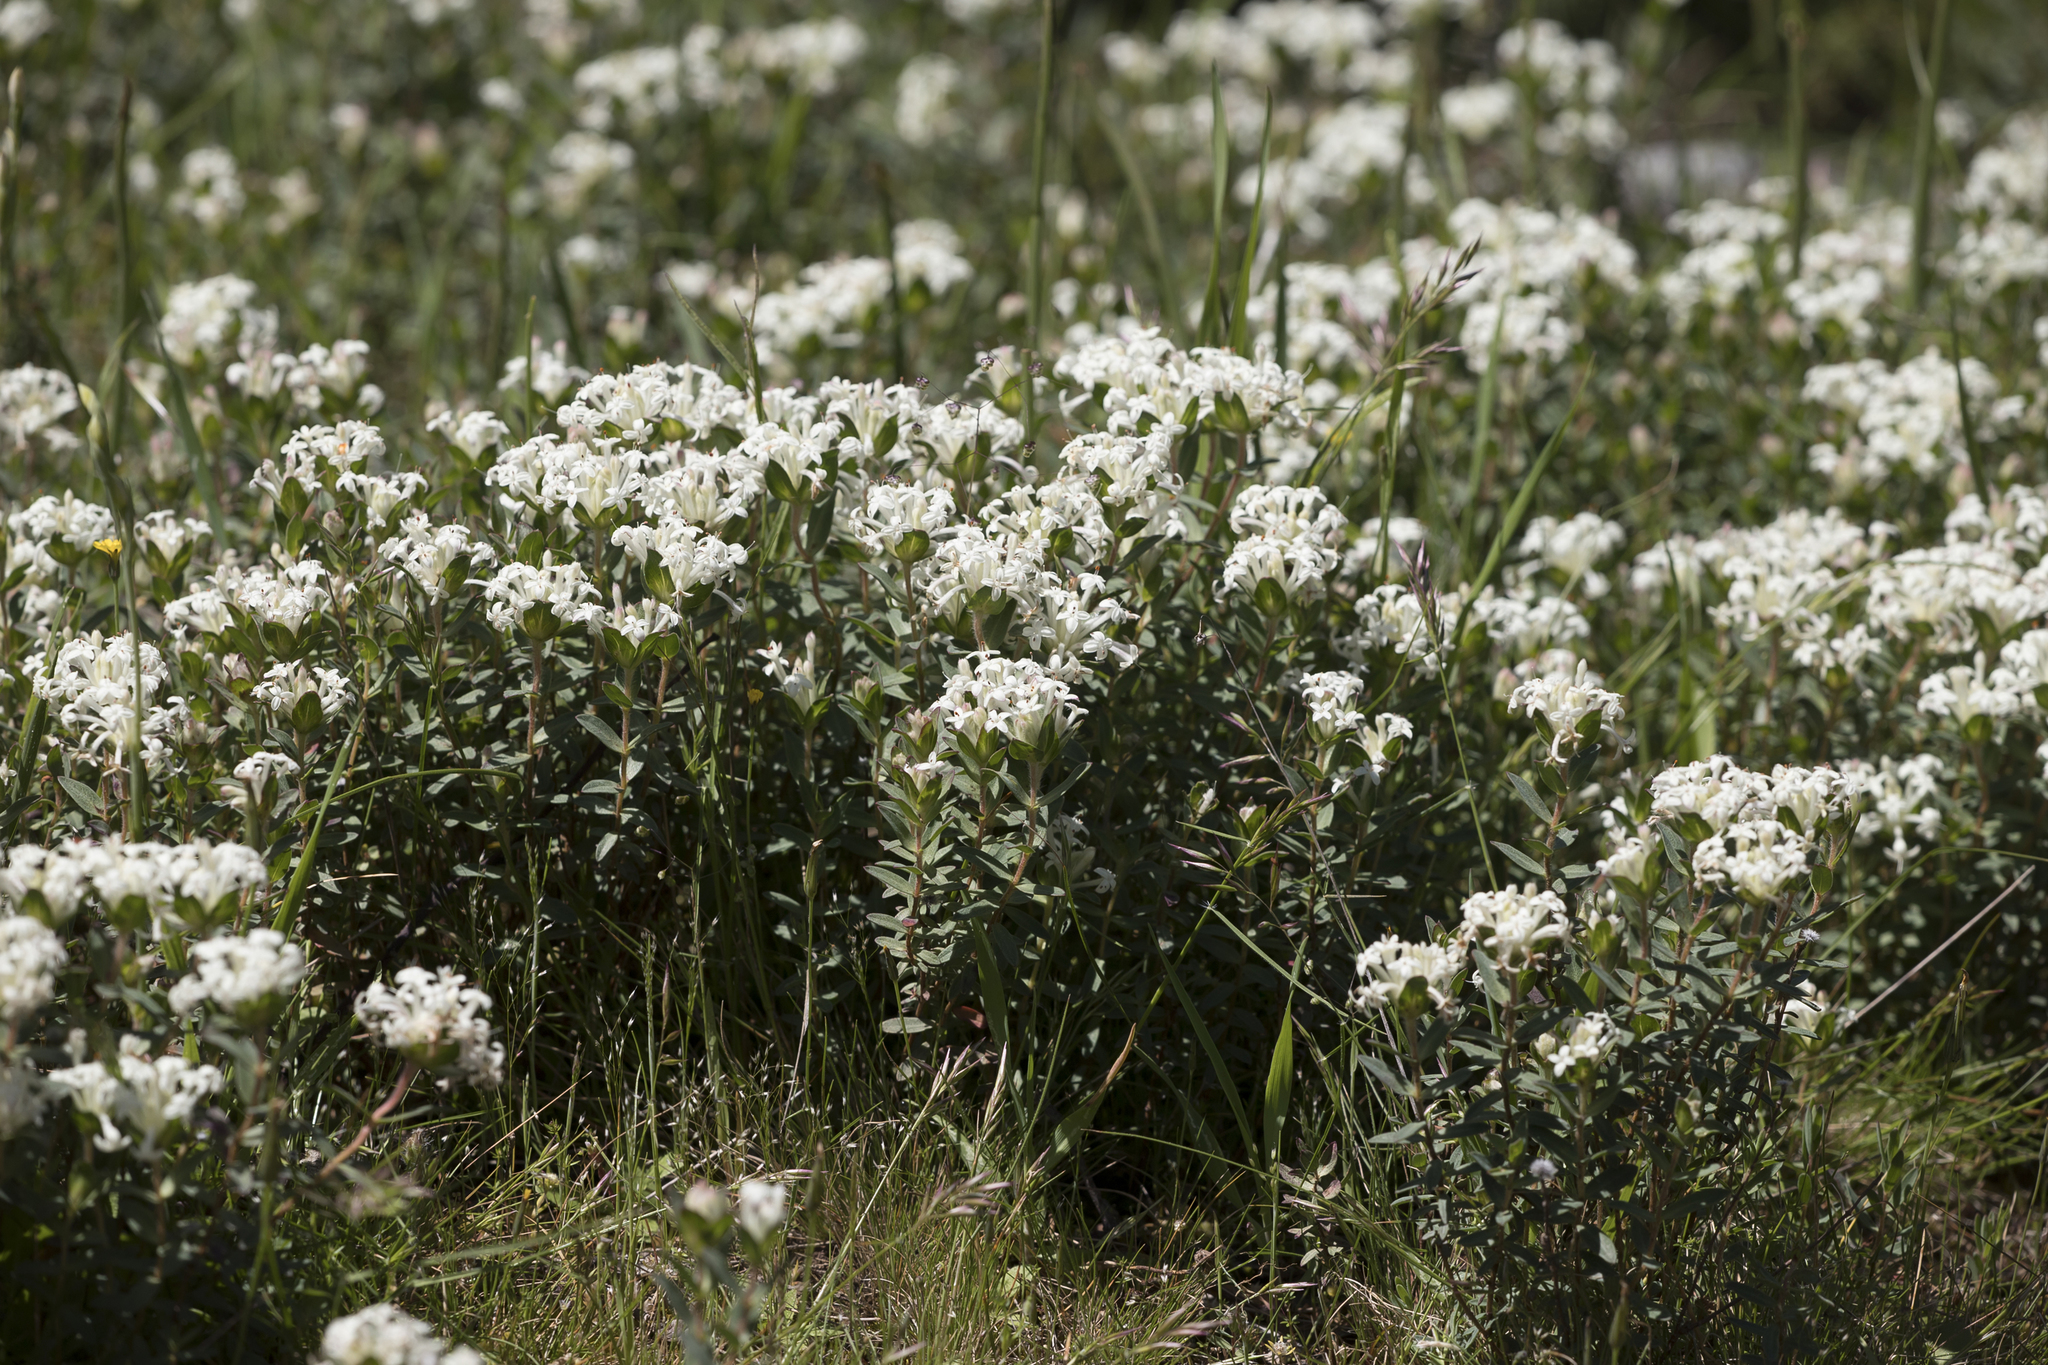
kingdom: Plantae
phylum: Tracheophyta
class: Magnoliopsida
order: Malvales
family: Thymelaeaceae
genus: Pimelea
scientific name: Pimelea humilis
